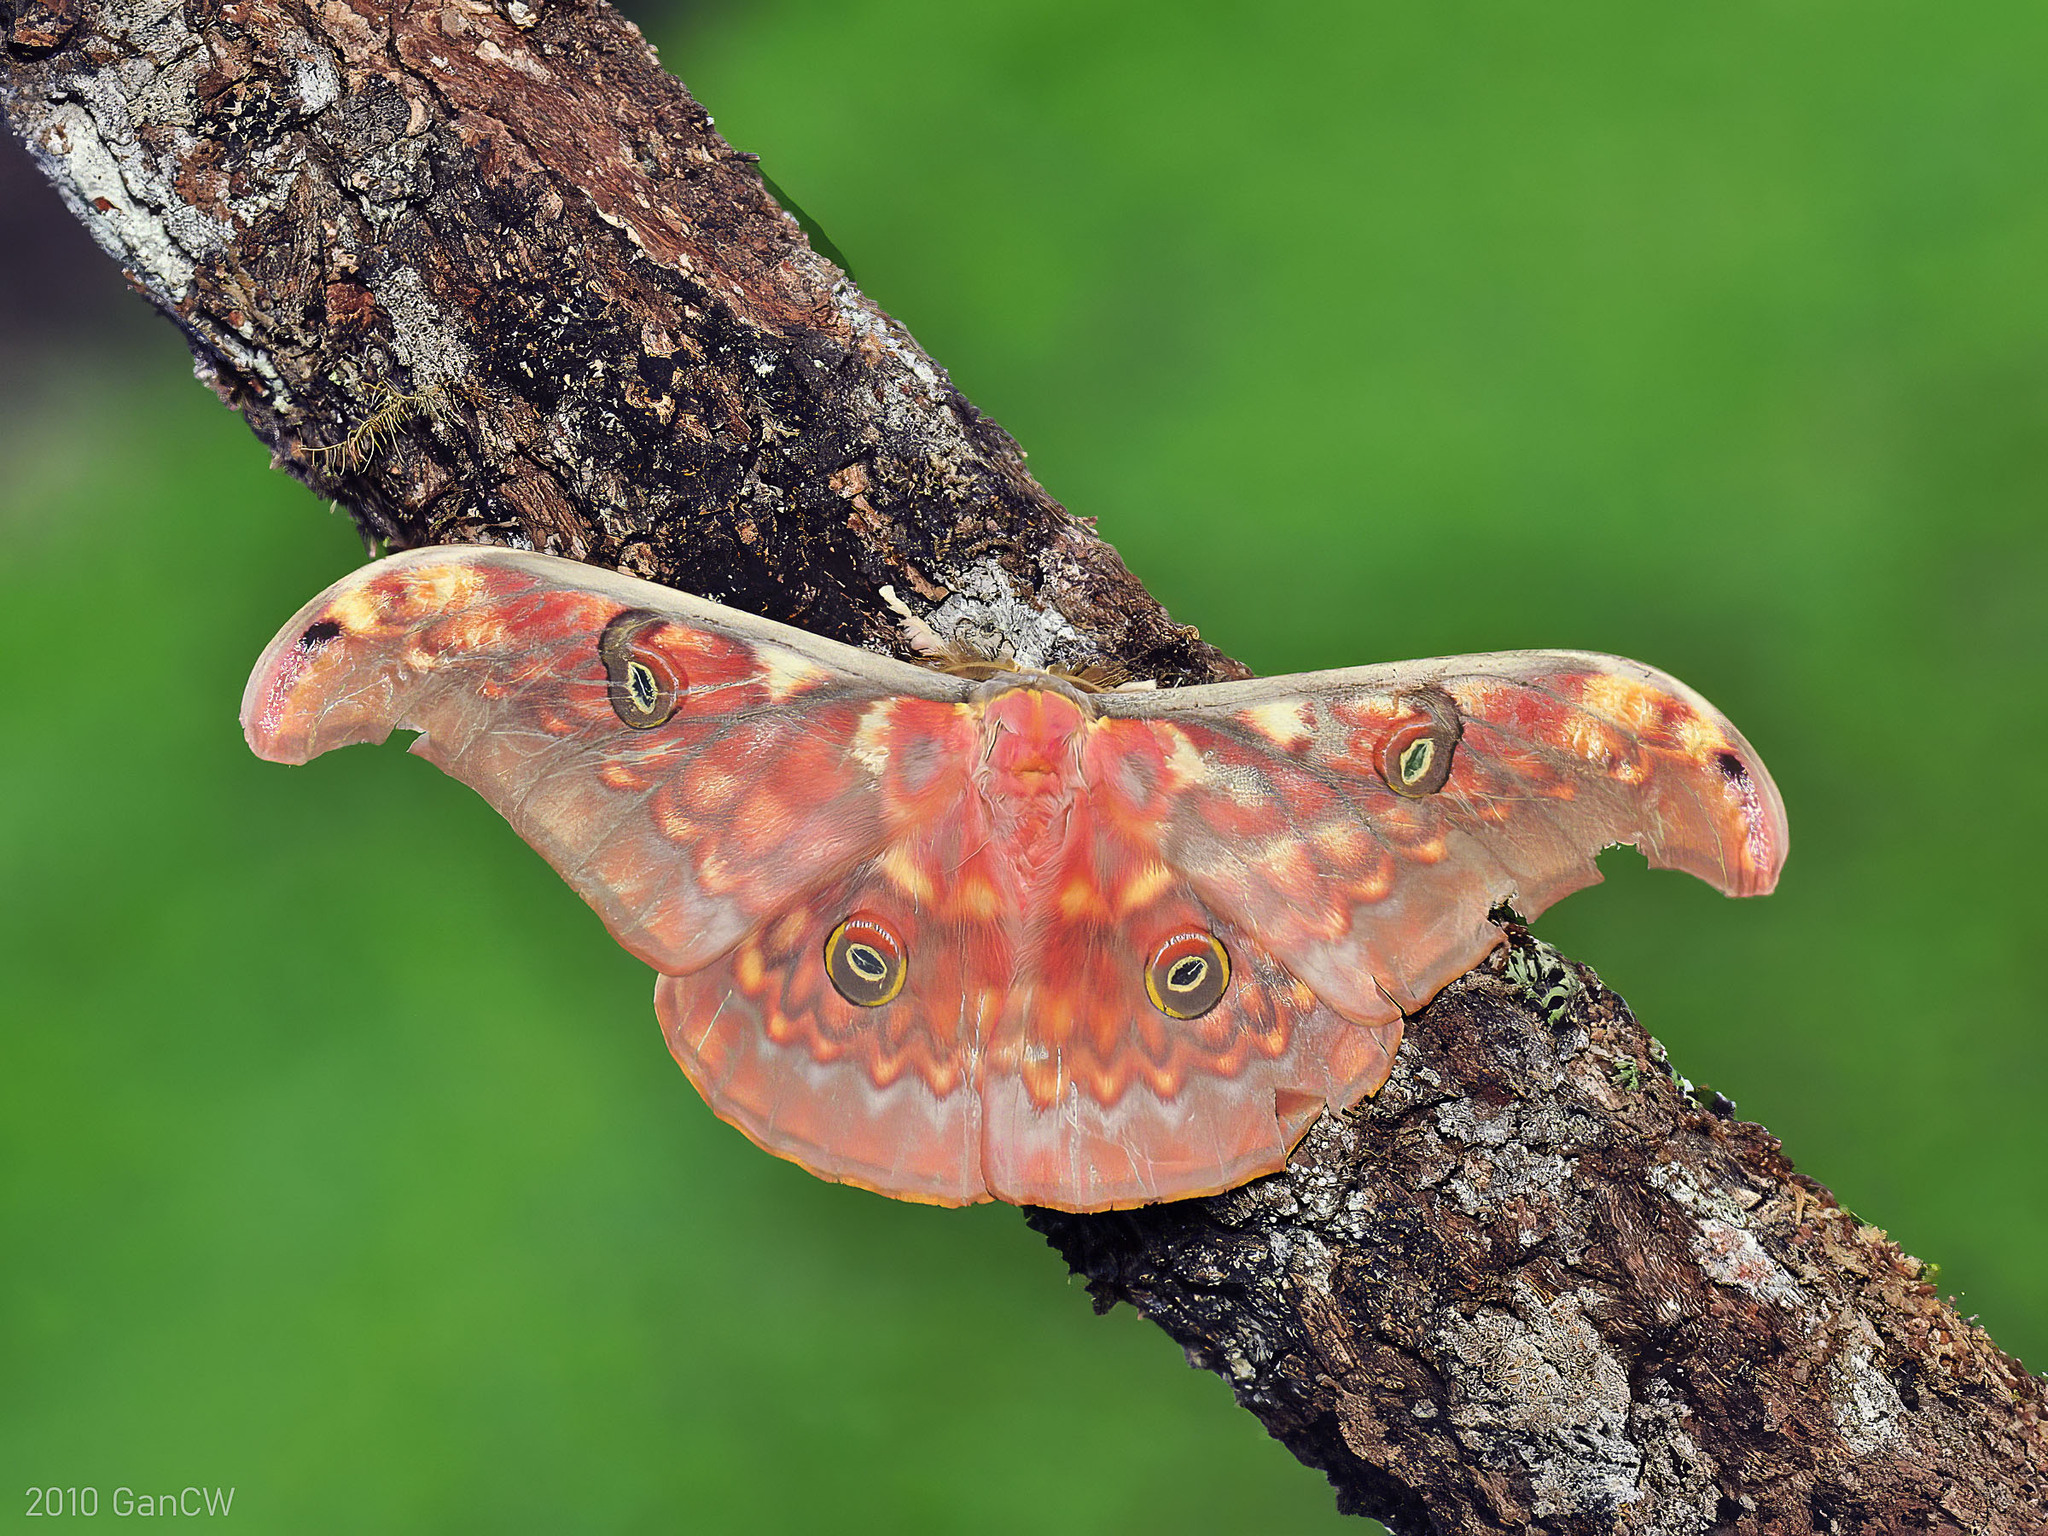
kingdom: Animalia
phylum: Arthropoda
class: Insecta
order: Lepidoptera
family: Saturniidae
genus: Antheraea
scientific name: Antheraea larissa
